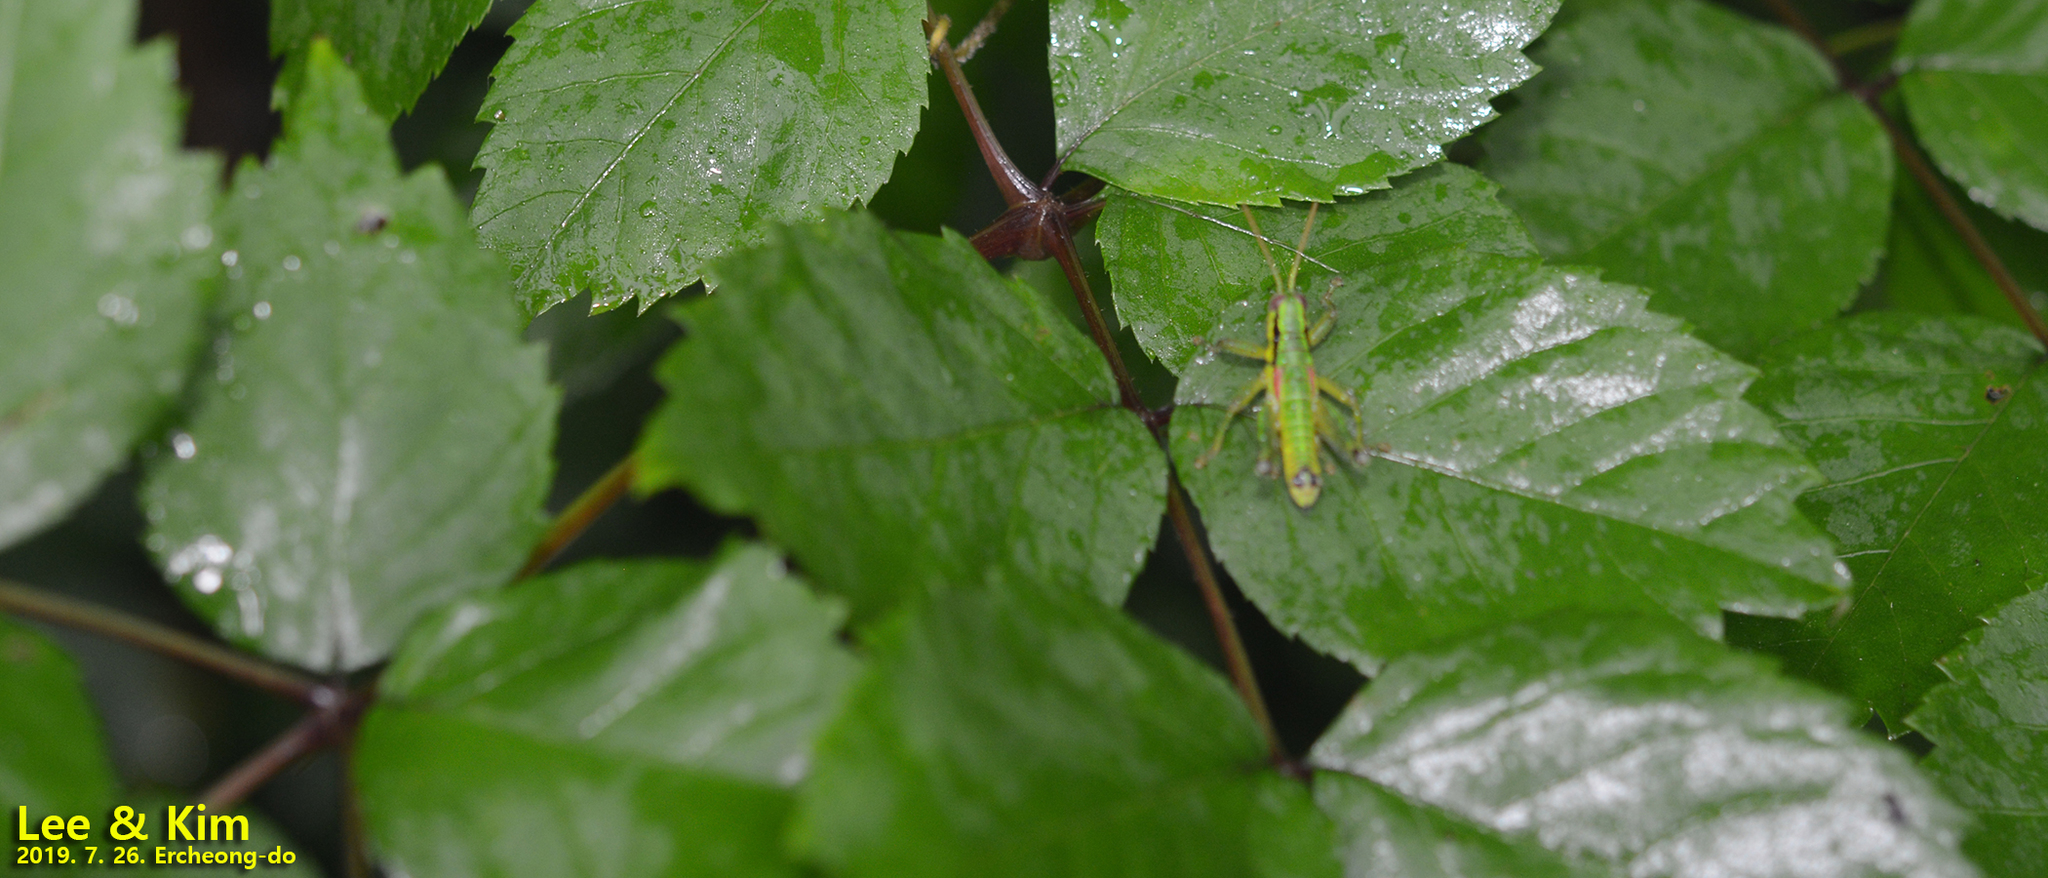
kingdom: Animalia
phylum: Arthropoda
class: Insecta
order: Orthoptera
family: Acrididae
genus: Anapodisma
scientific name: Anapodisma miramae
